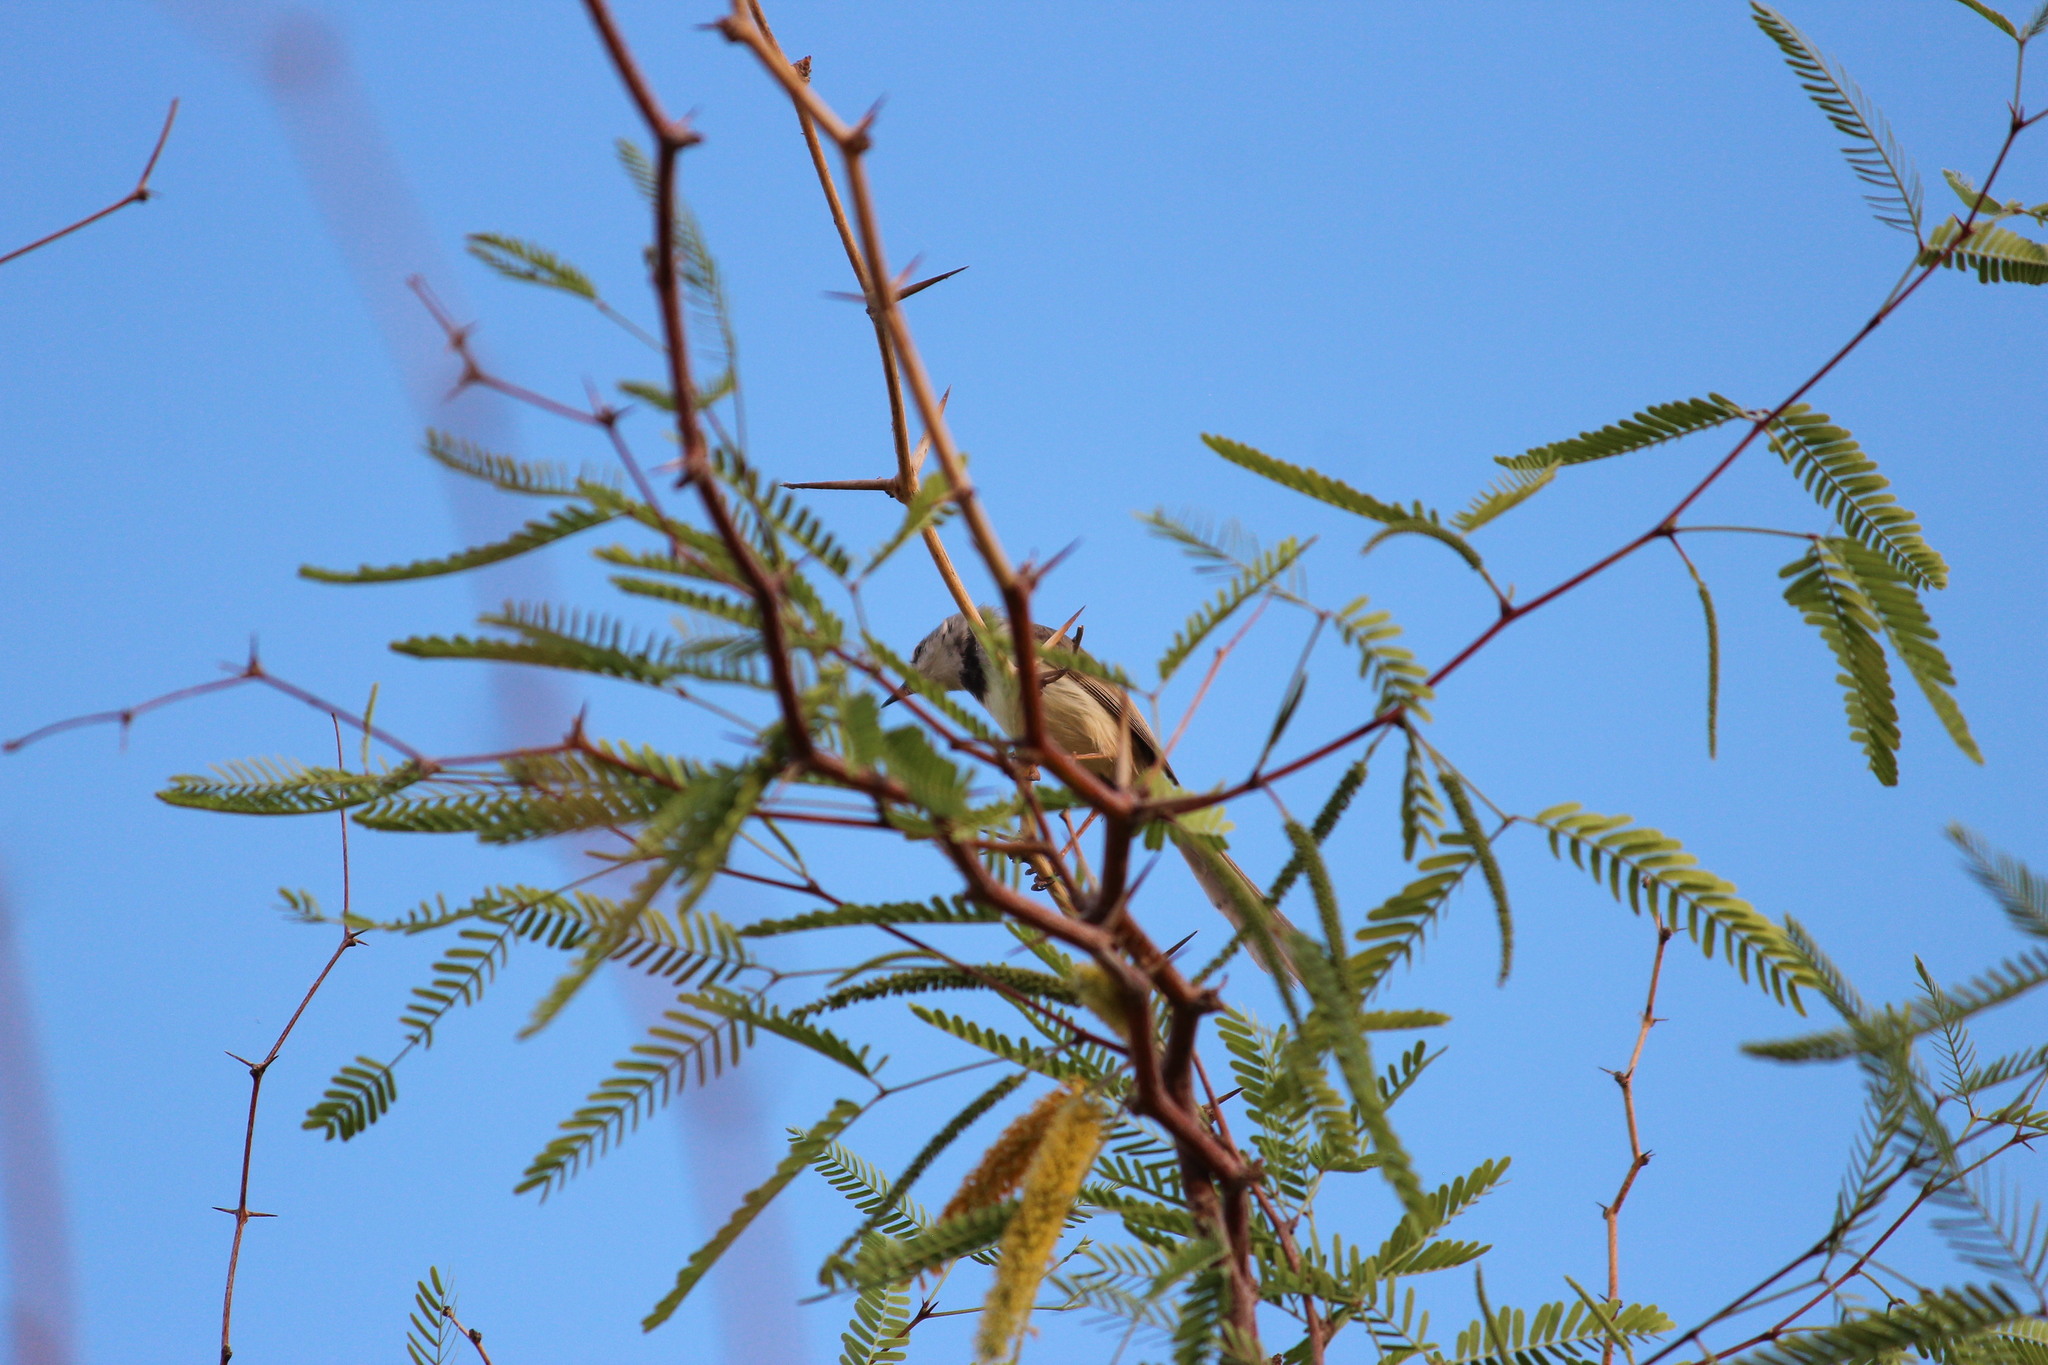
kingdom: Animalia
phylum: Chordata
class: Aves
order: Passeriformes
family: Cisticolidae
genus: Prinia
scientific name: Prinia flavicans
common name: Black-chested prinia
